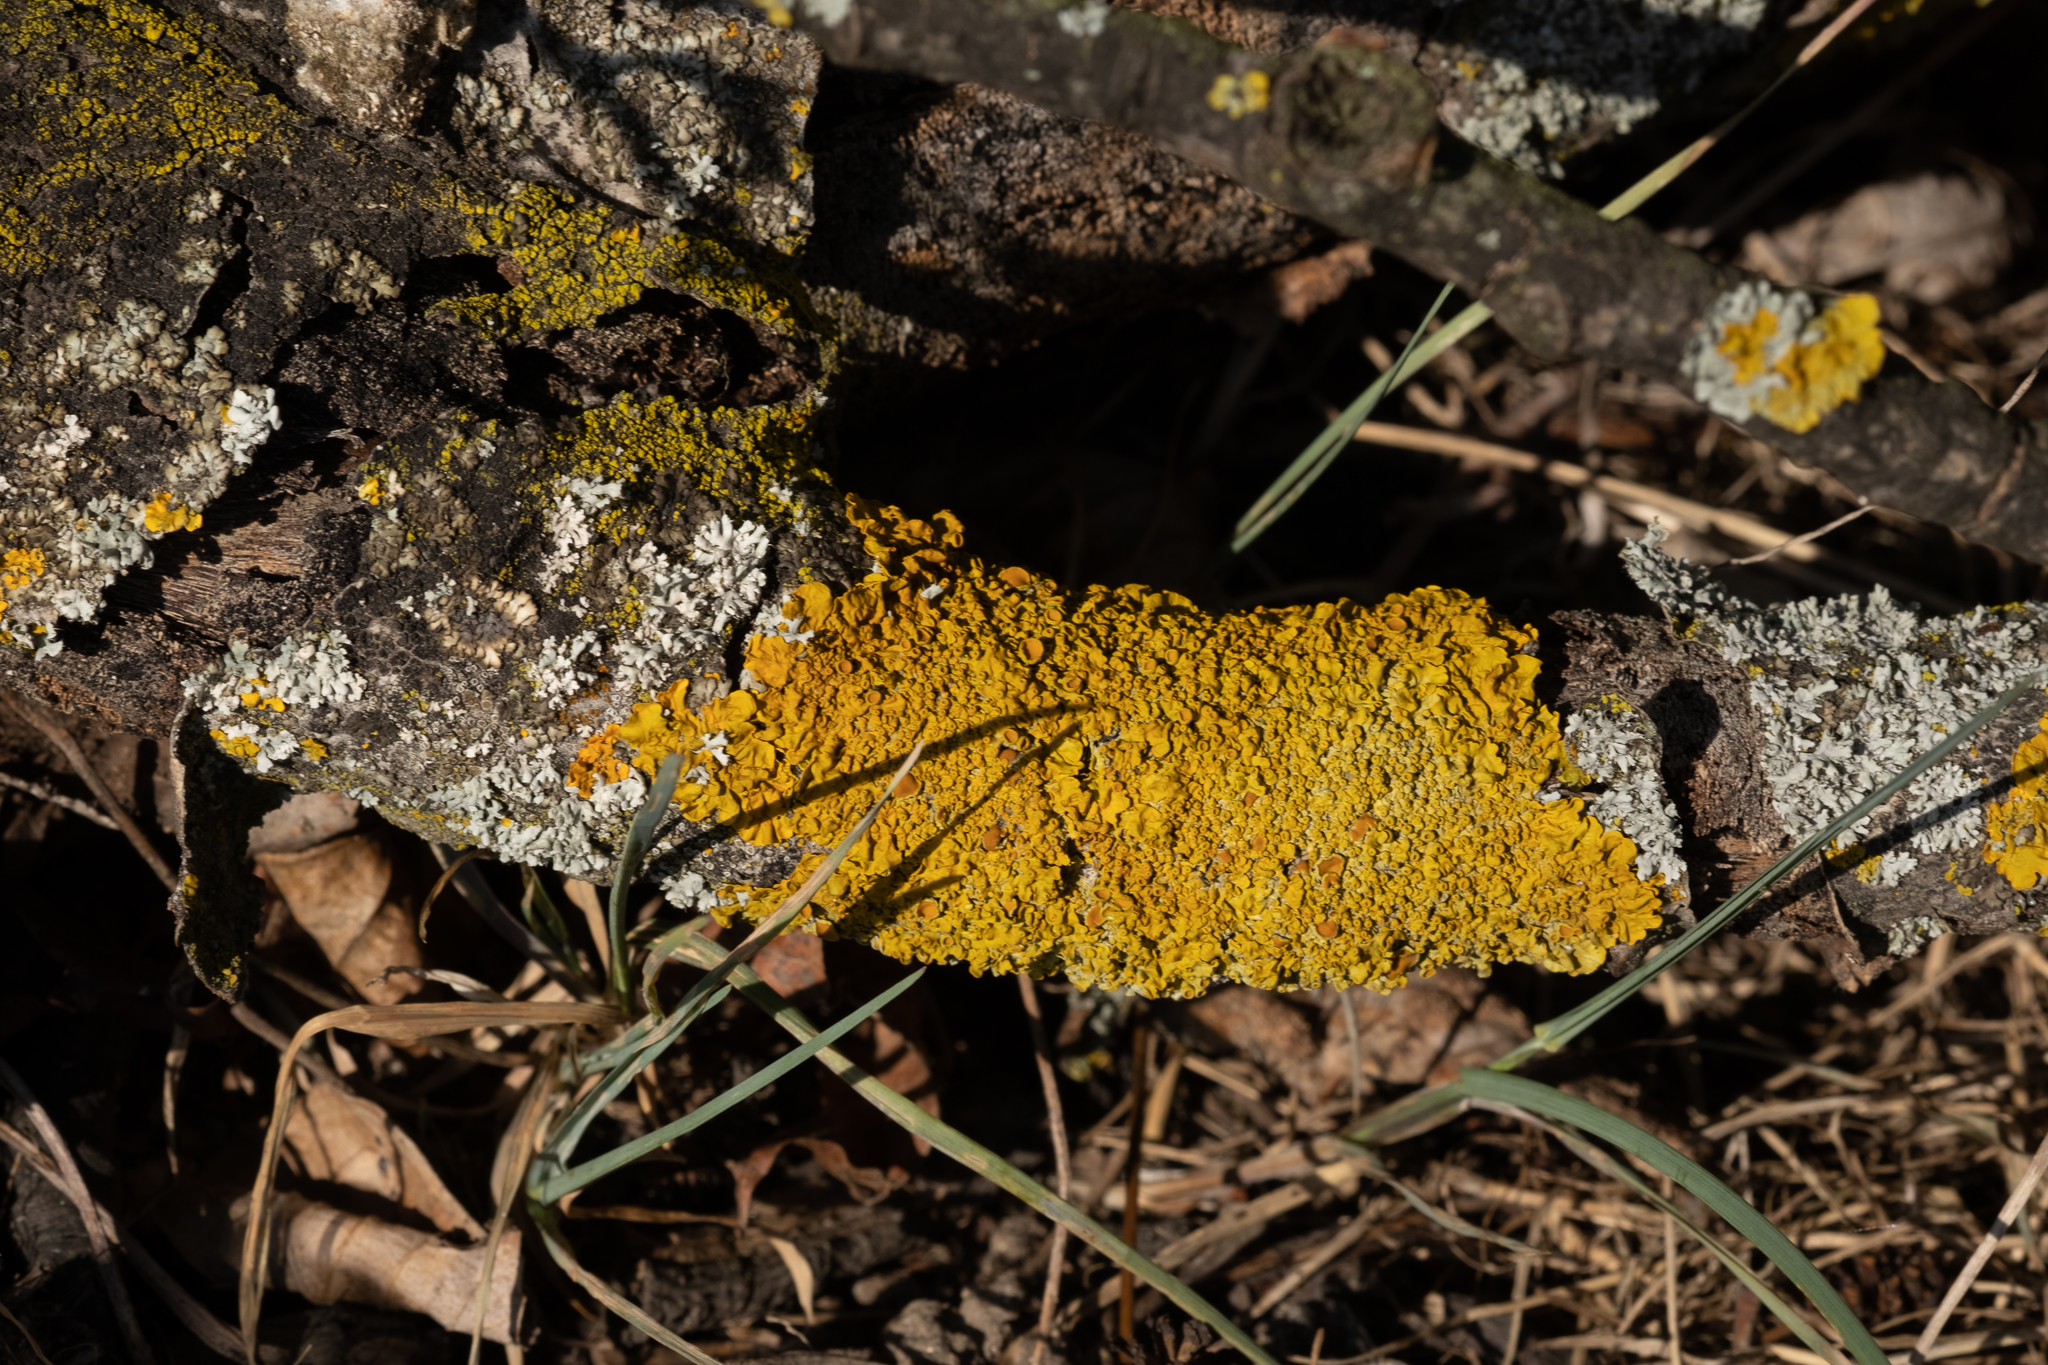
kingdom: Fungi
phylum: Ascomycota
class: Lecanoromycetes
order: Teloschistales
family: Teloschistaceae
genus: Xanthoria
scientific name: Xanthoria parietina
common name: Common orange lichen
